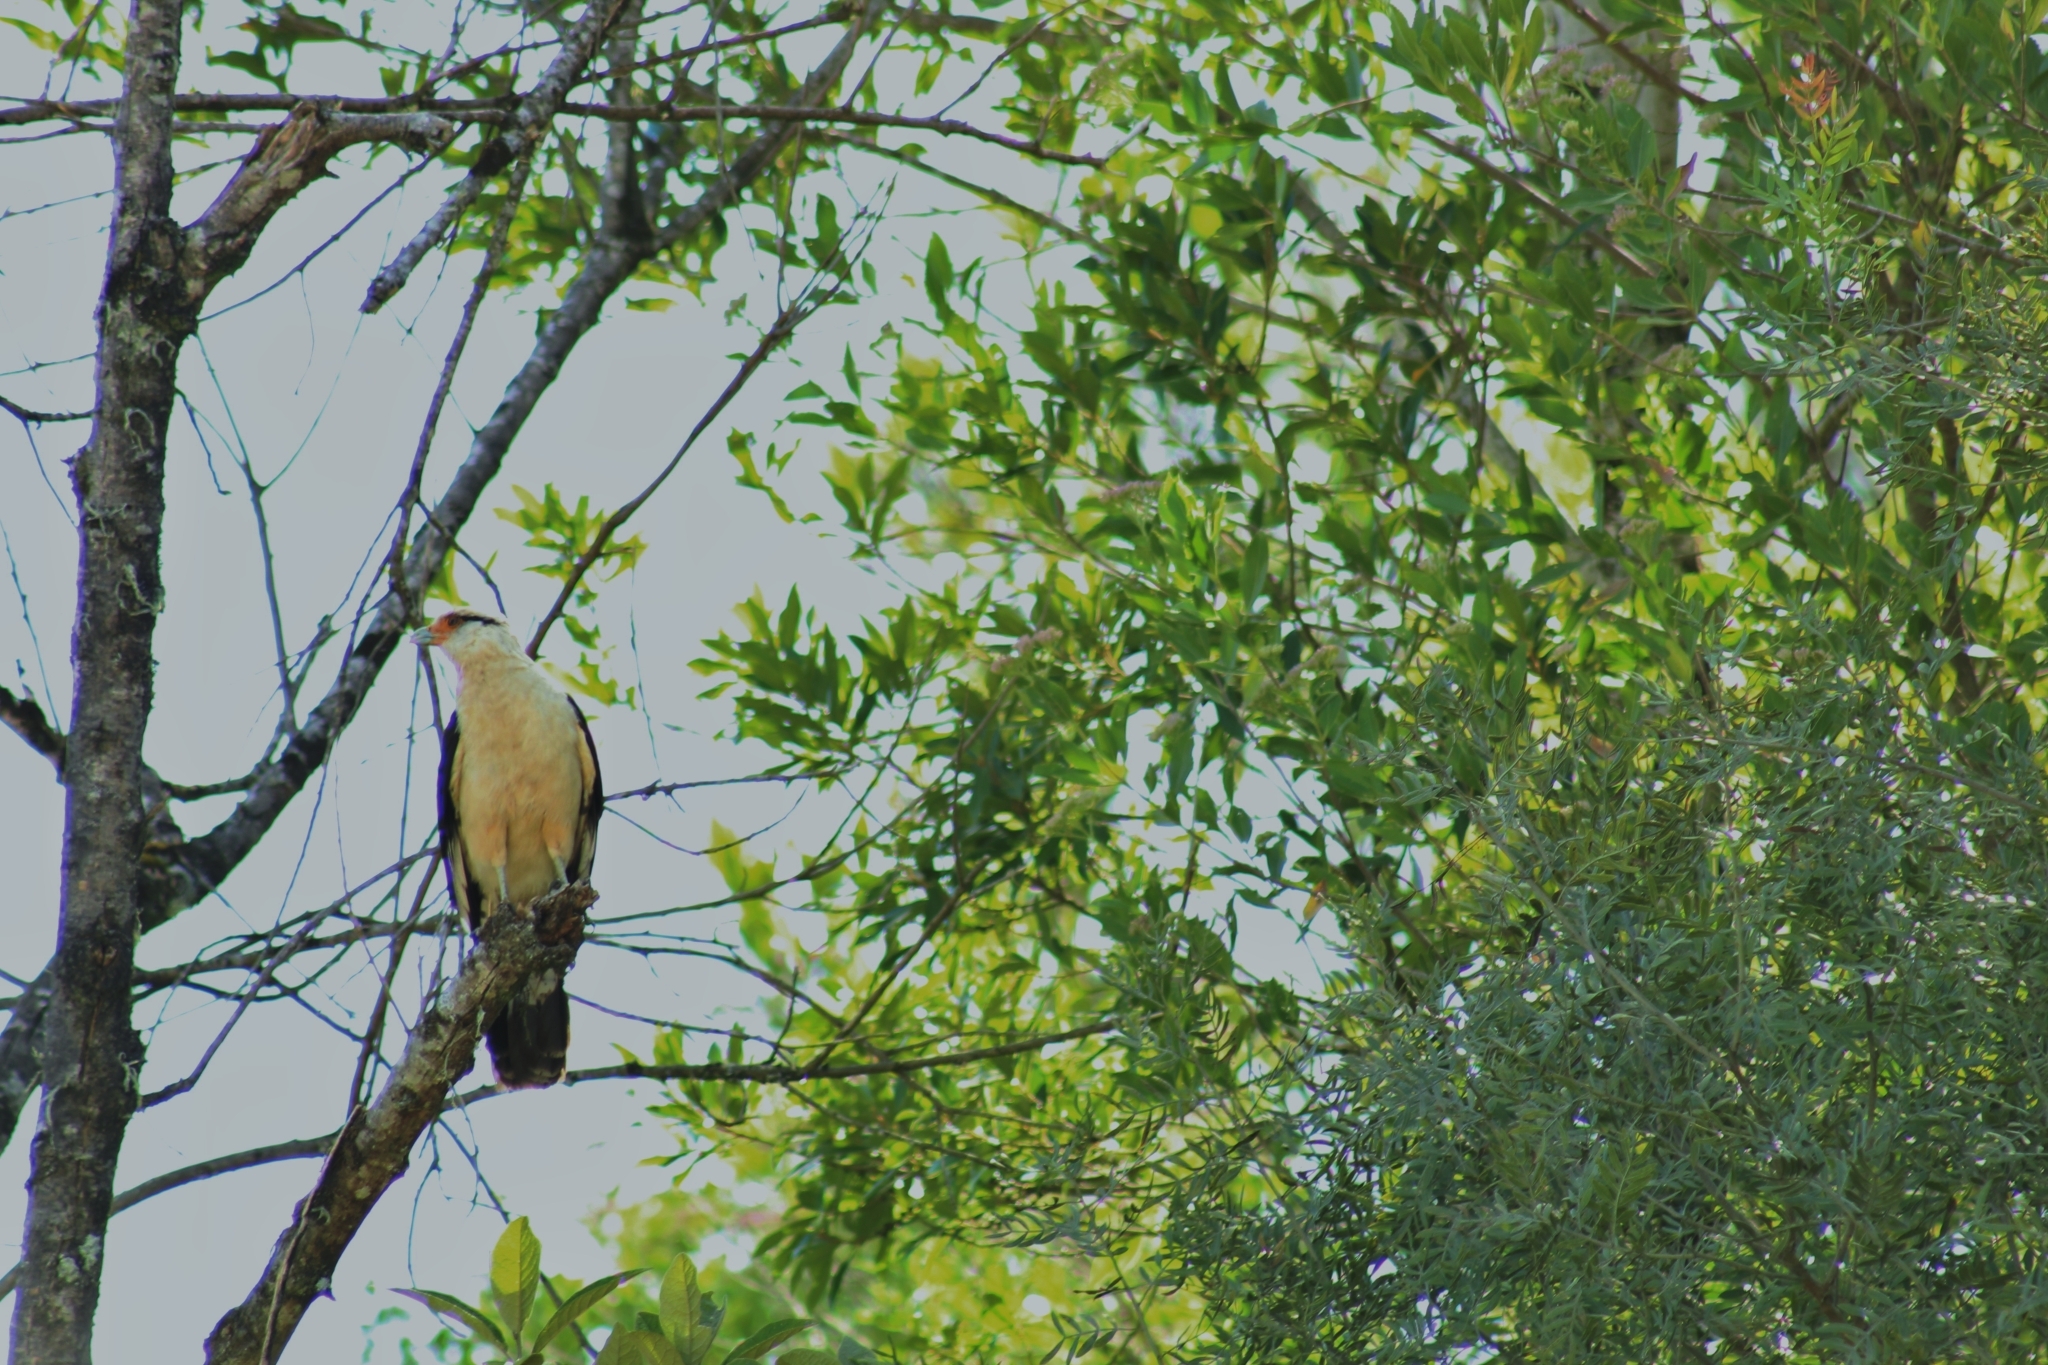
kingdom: Animalia
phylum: Chordata
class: Aves
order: Falconiformes
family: Falconidae
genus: Daptrius
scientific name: Daptrius
